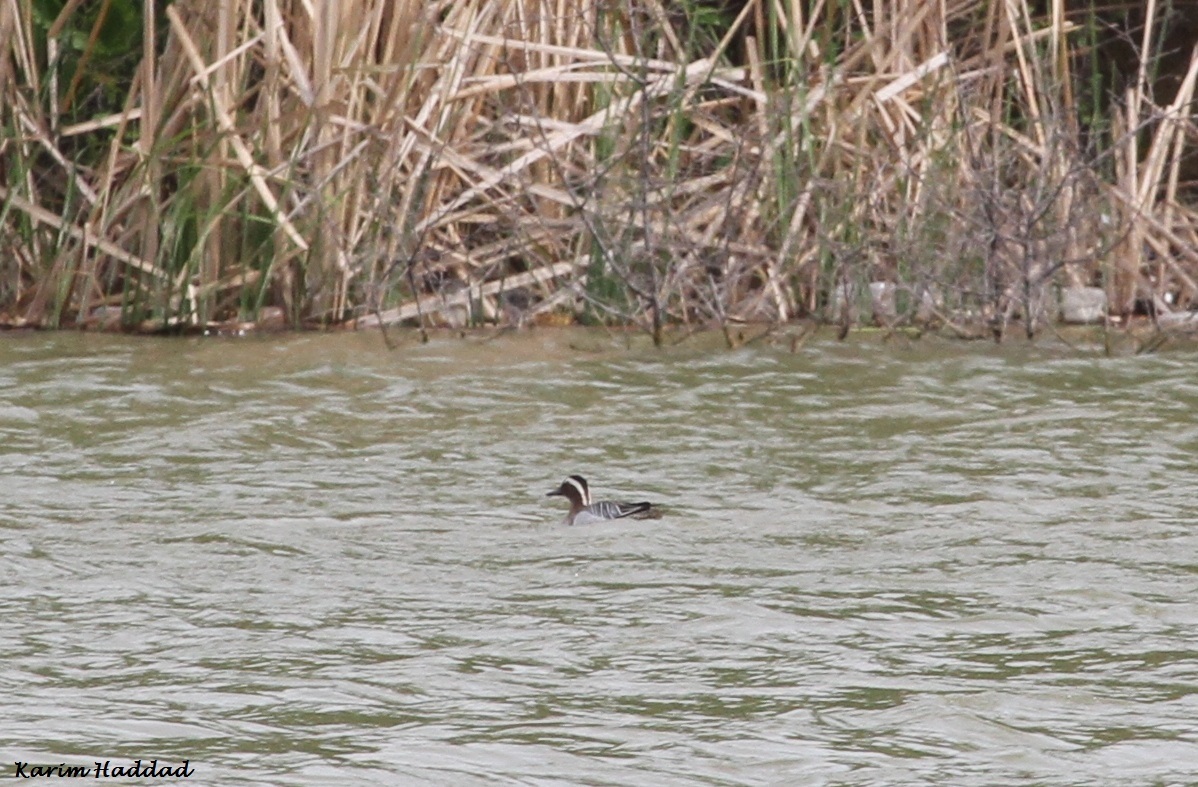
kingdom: Animalia
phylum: Chordata
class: Aves
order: Anseriformes
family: Anatidae
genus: Spatula
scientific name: Spatula querquedula
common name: Garganey
